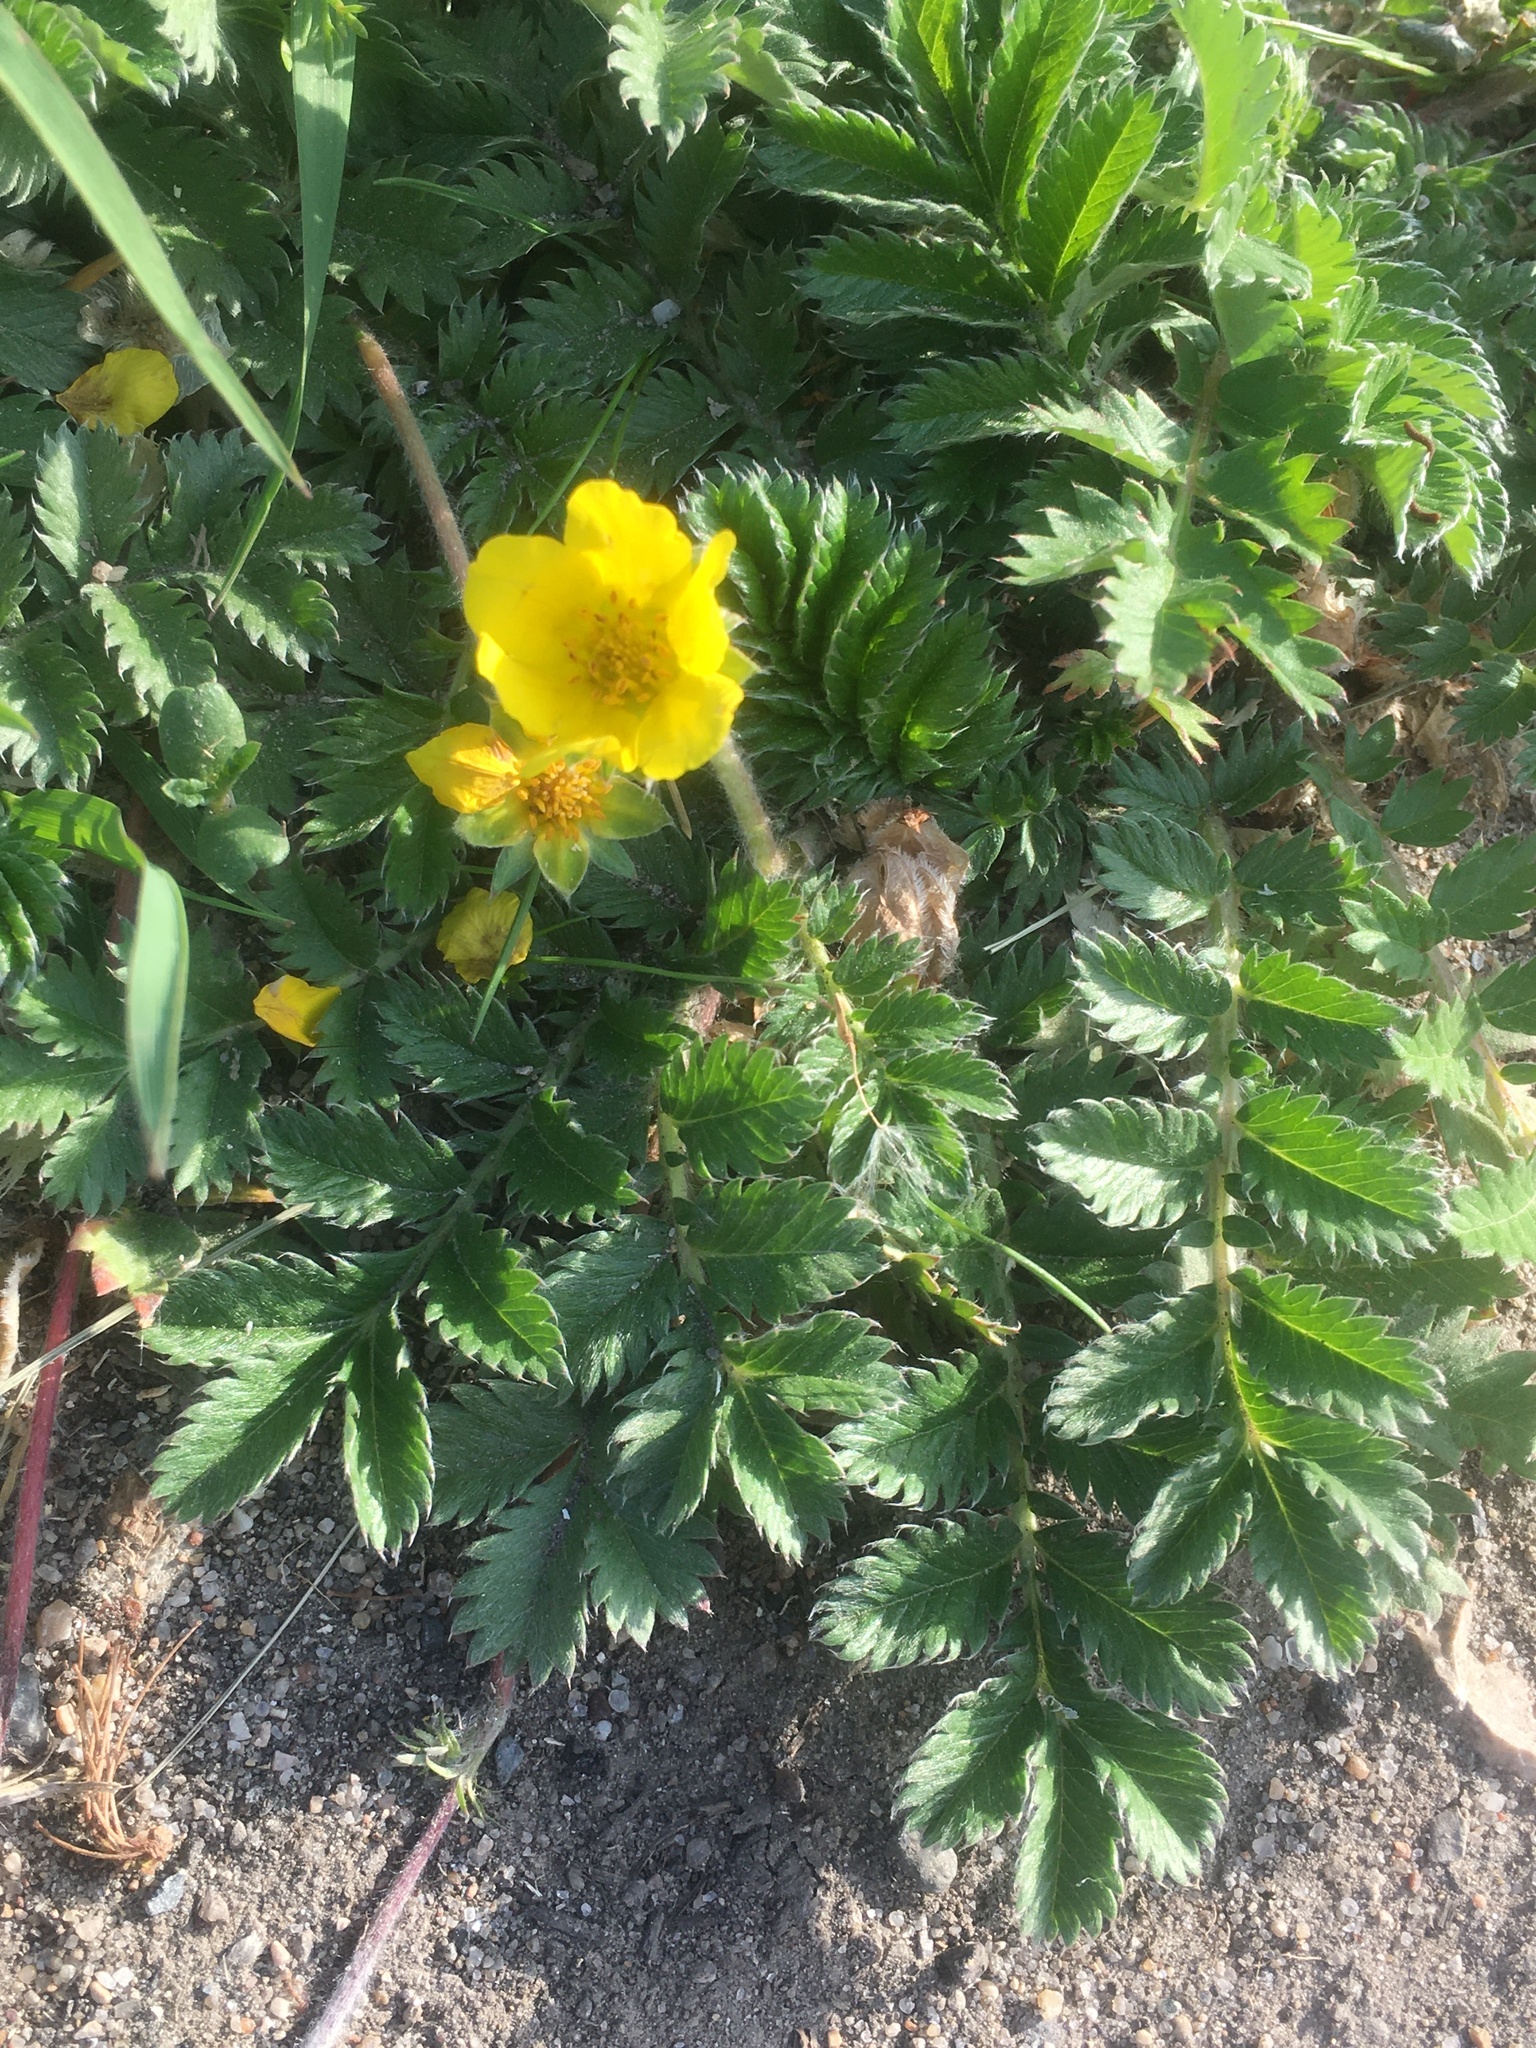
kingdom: Plantae
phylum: Tracheophyta
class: Magnoliopsida
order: Rosales
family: Rosaceae
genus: Argentina
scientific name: Argentina anserina
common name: Common silverweed
